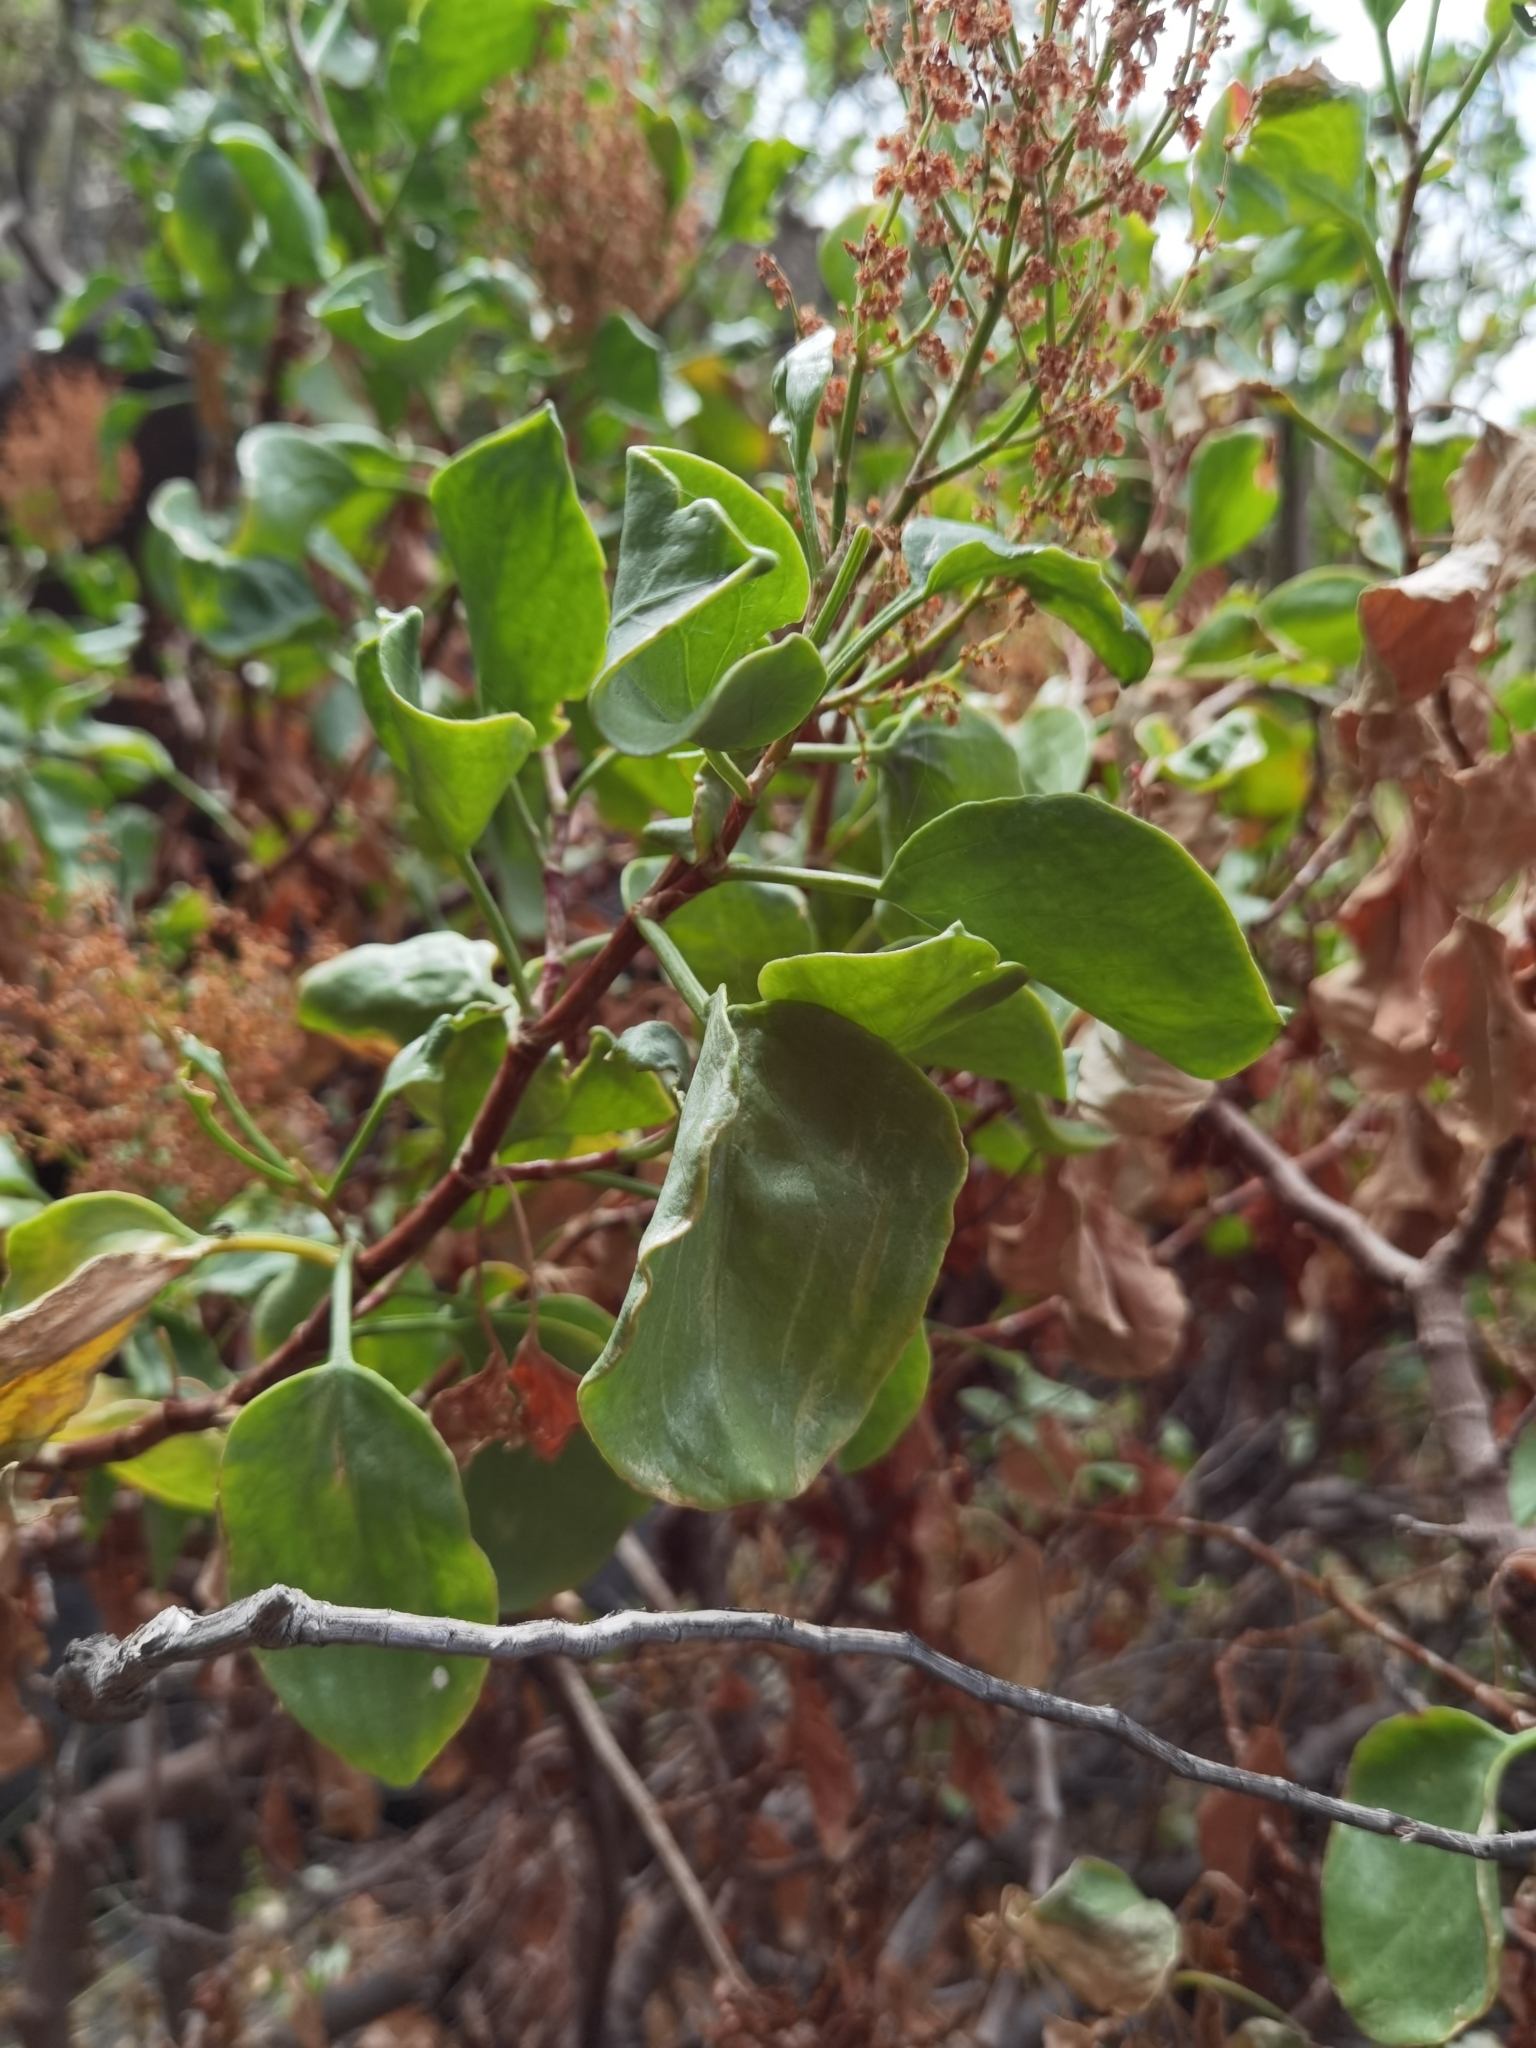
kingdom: Plantae
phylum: Tracheophyta
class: Magnoliopsida
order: Caryophyllales
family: Polygonaceae
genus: Rumex
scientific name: Rumex lunaria
